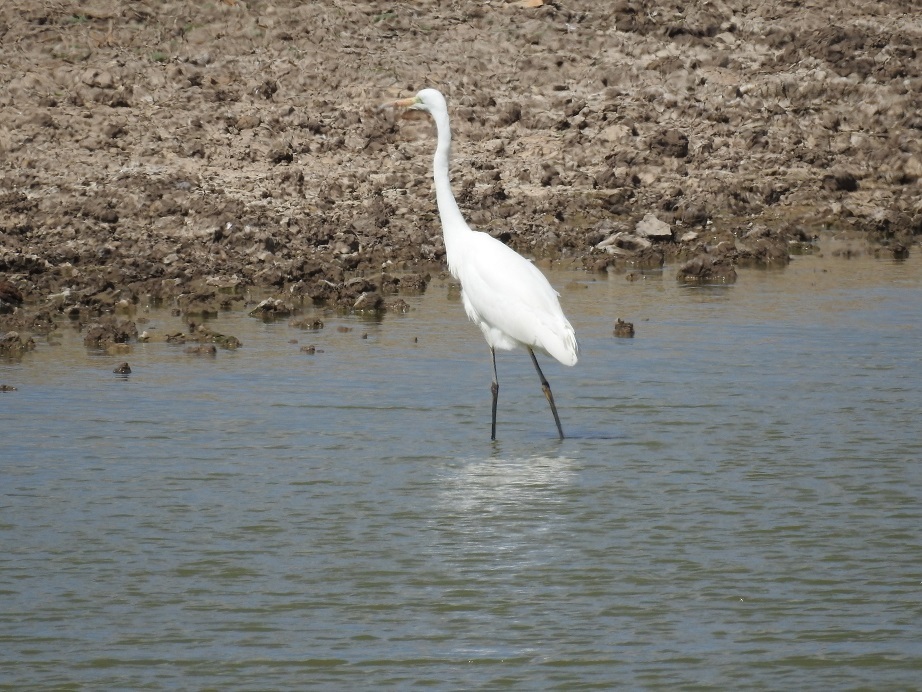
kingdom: Animalia
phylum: Chordata
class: Aves
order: Pelecaniformes
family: Ardeidae
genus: Ardea
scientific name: Ardea alba
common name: Great egret
